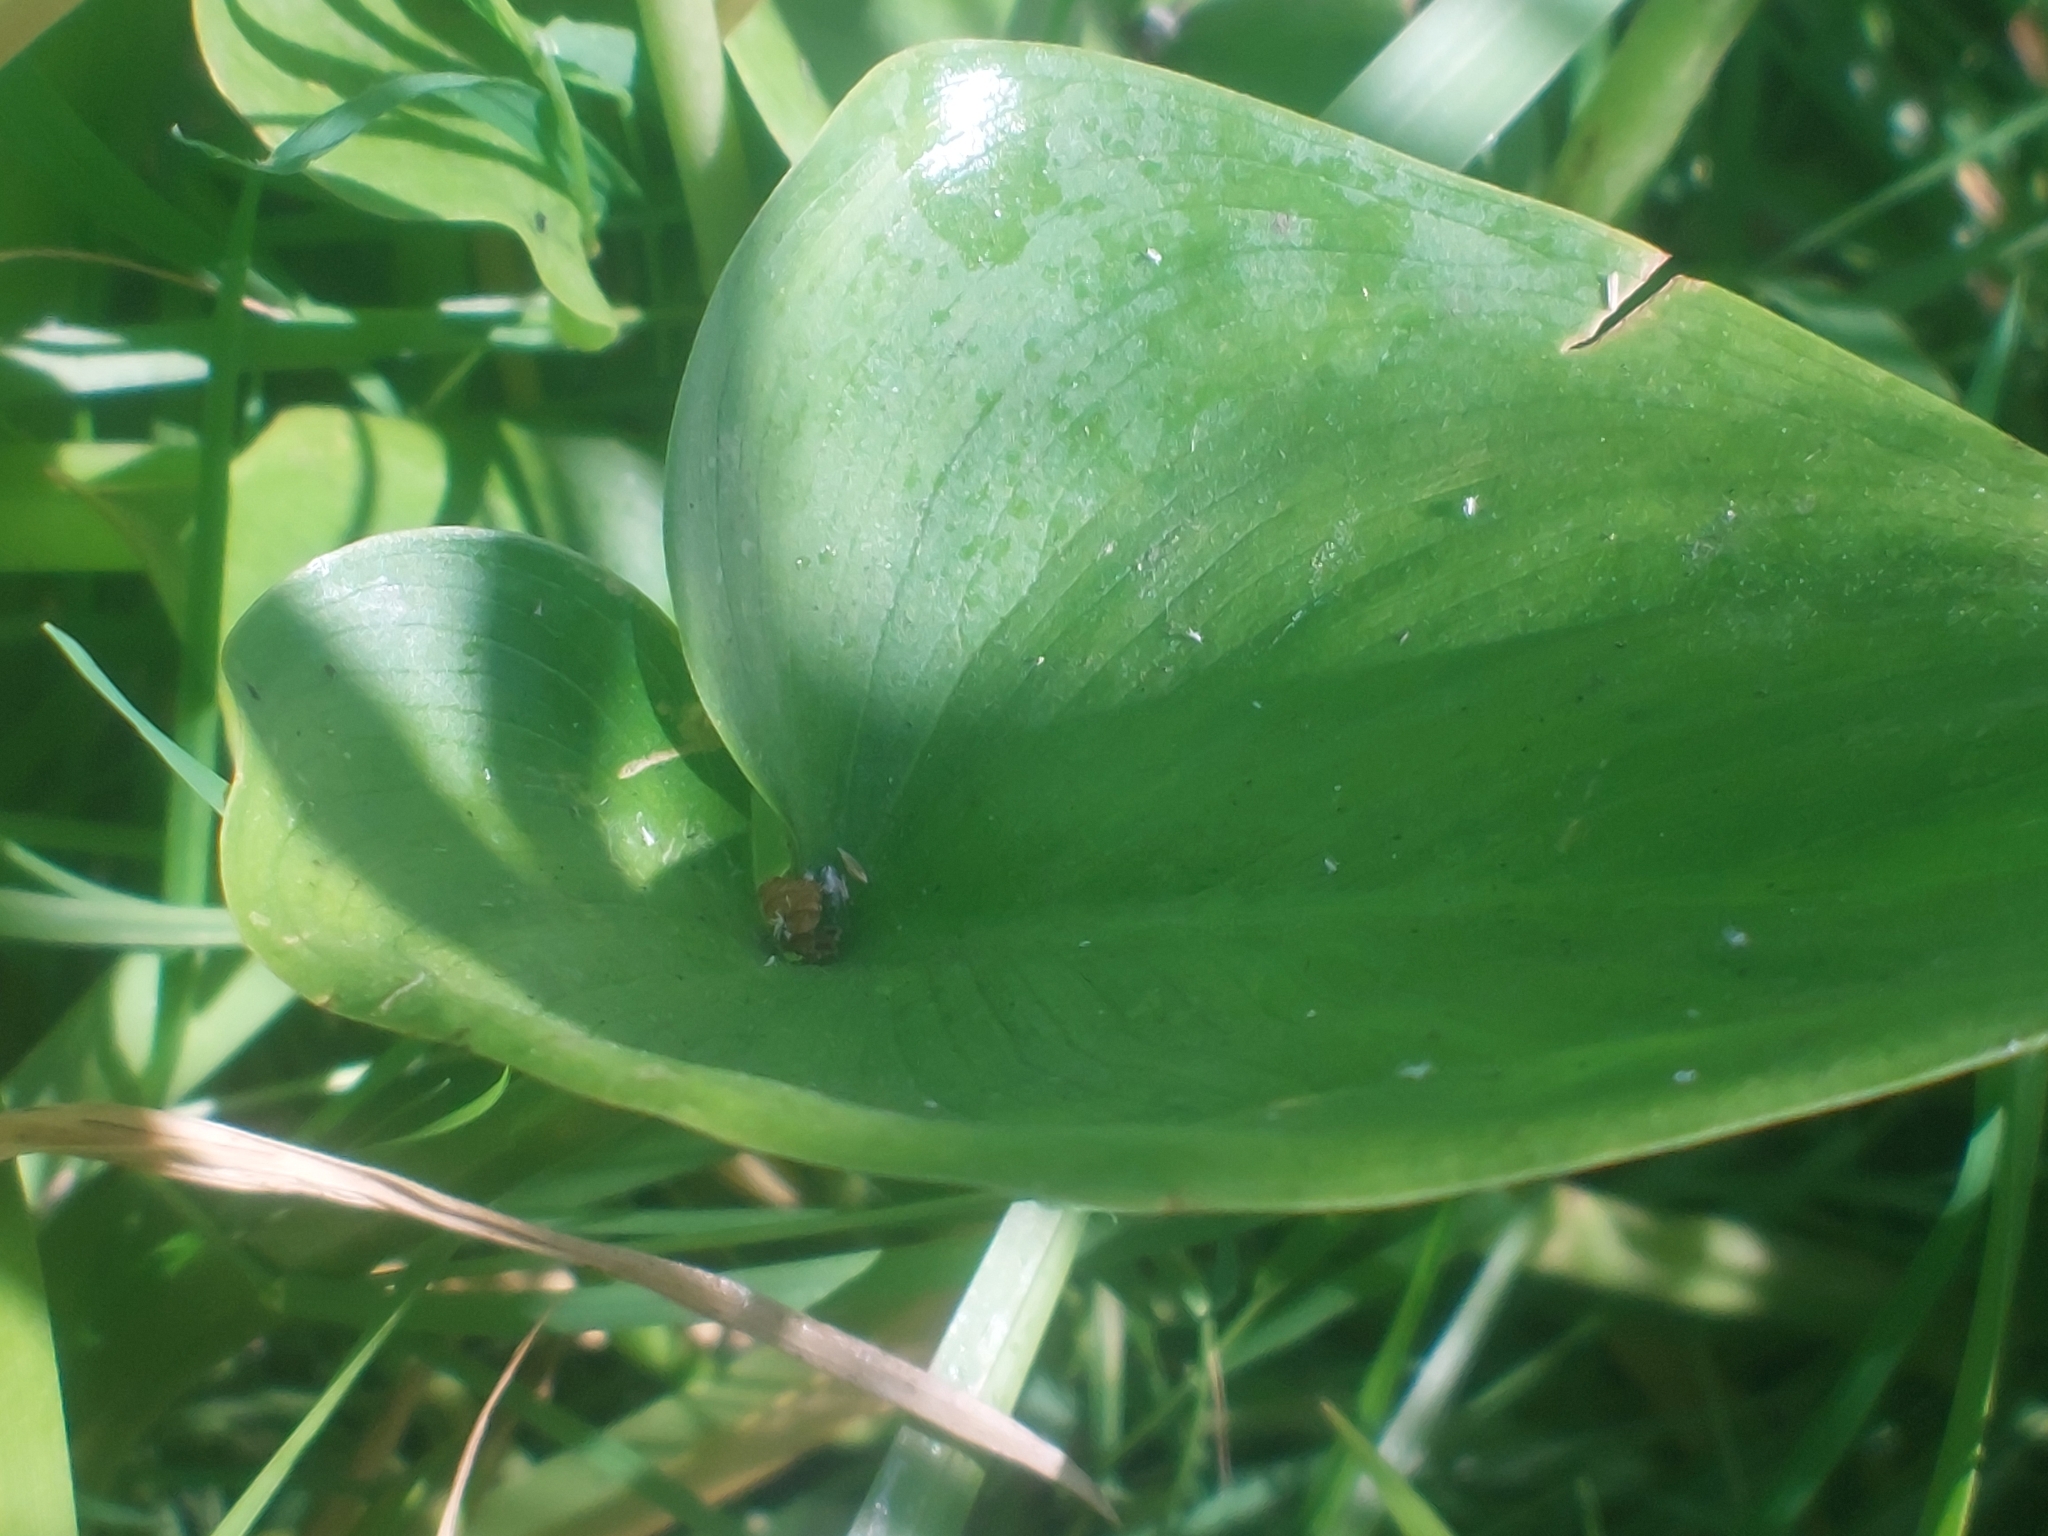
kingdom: Plantae
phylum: Tracheophyta
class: Liliopsida
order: Alismatales
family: Araceae
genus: Calla
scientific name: Calla palustris
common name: Bog arum
